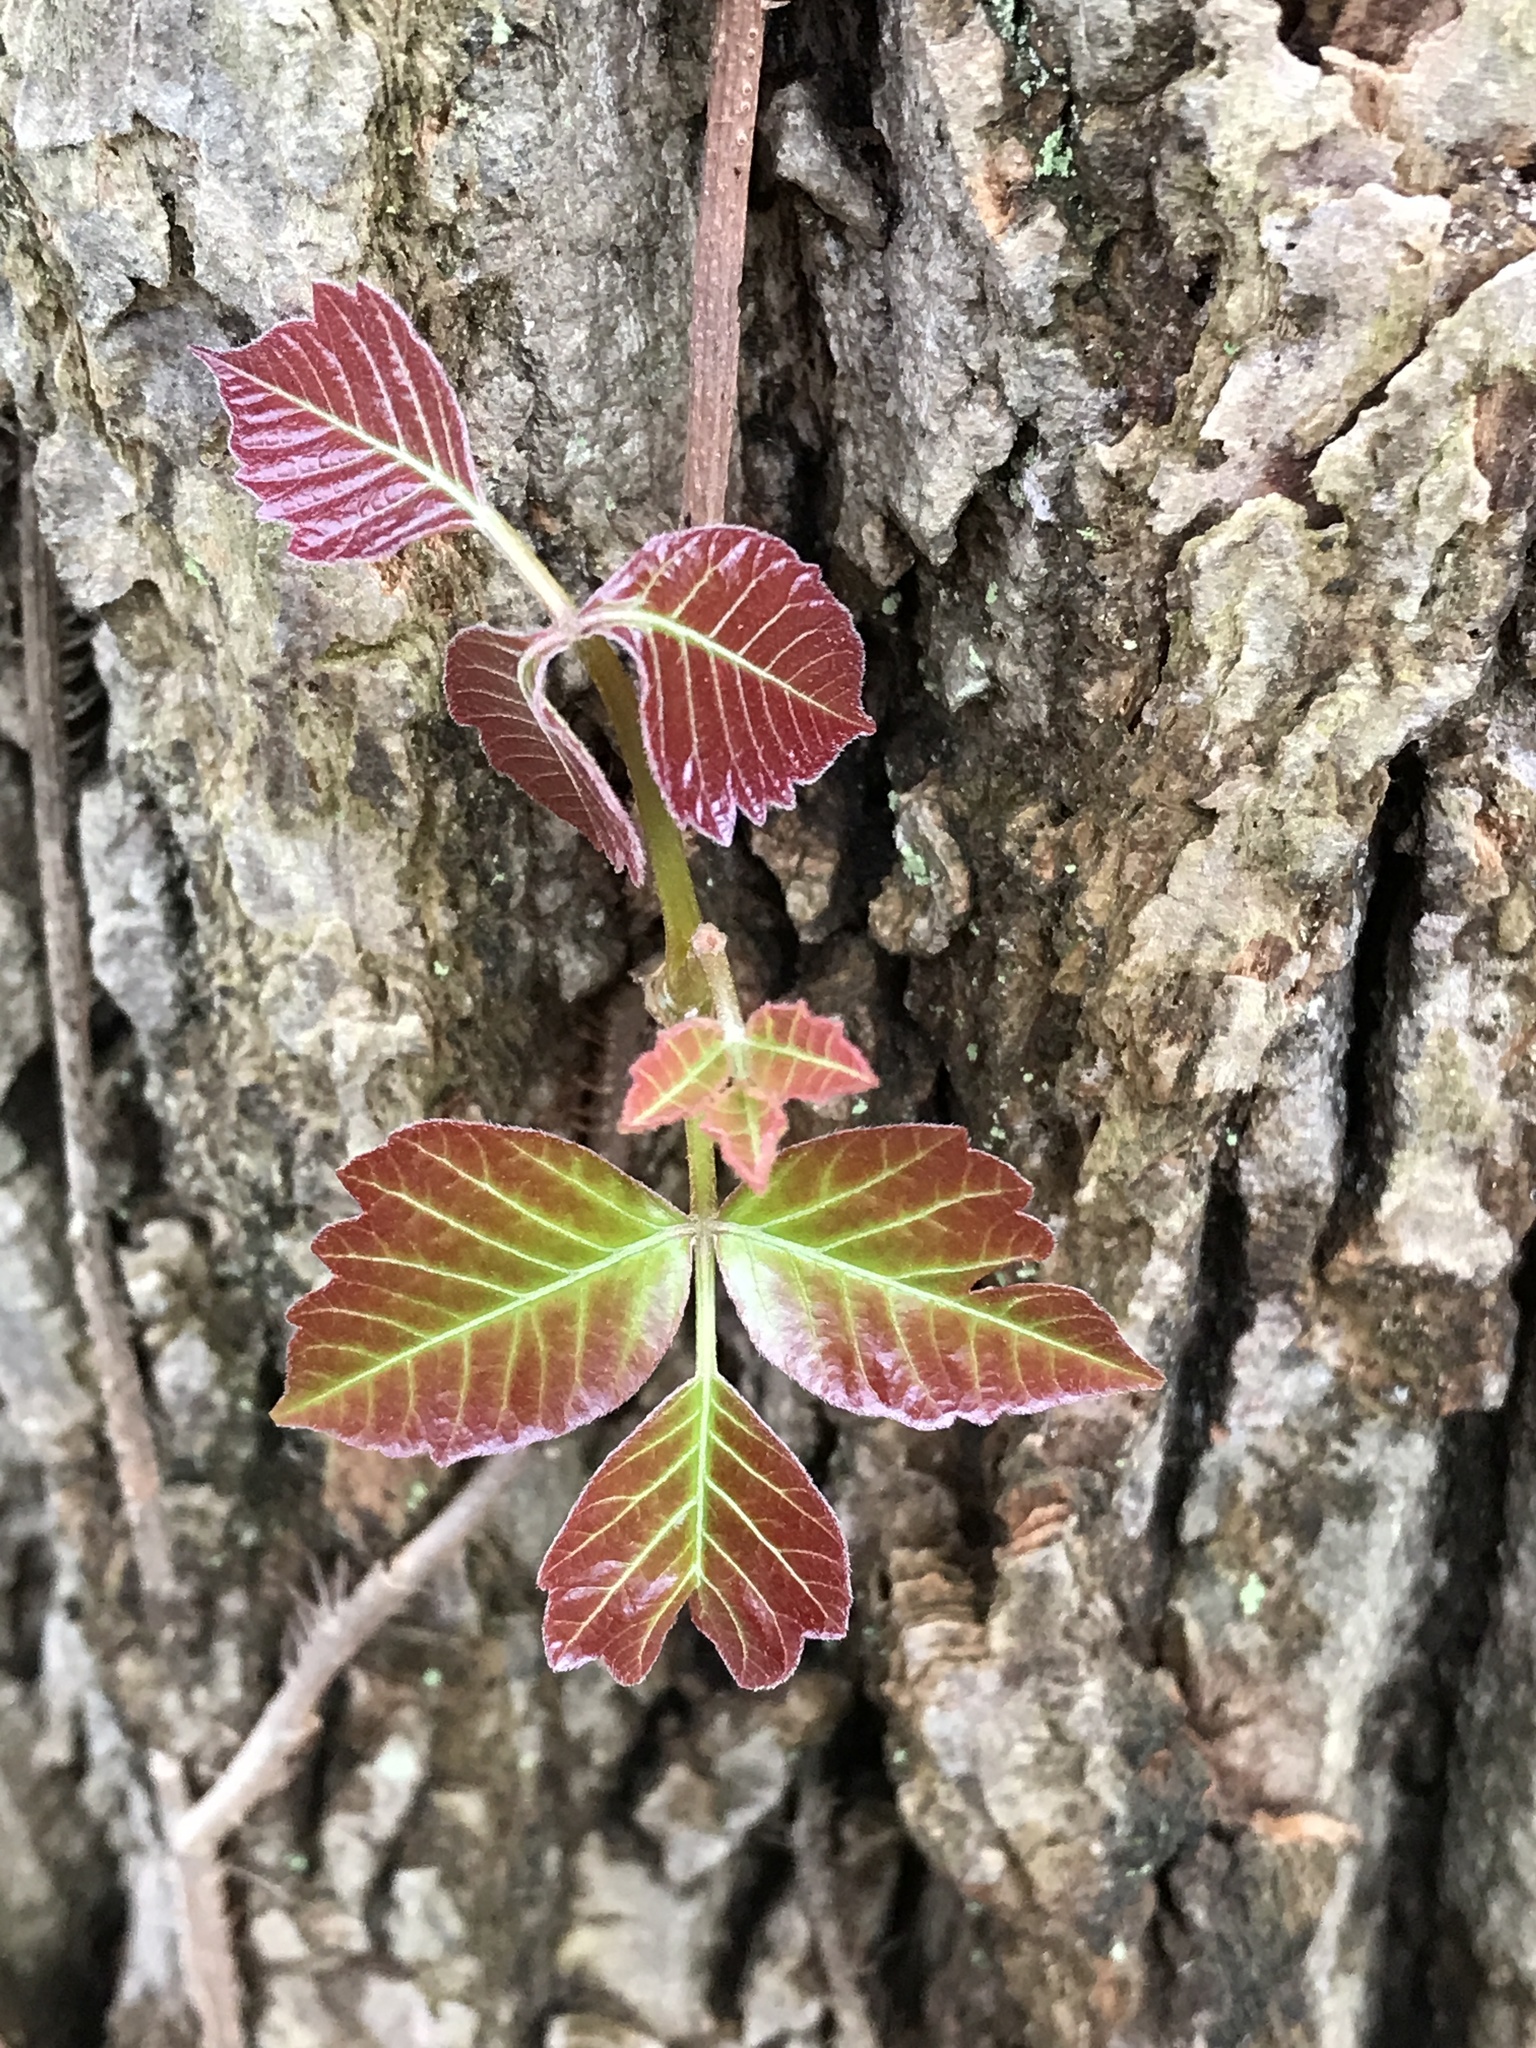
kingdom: Plantae
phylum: Tracheophyta
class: Magnoliopsida
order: Sapindales
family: Anacardiaceae
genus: Toxicodendron
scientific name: Toxicodendron radicans
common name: Poison ivy
